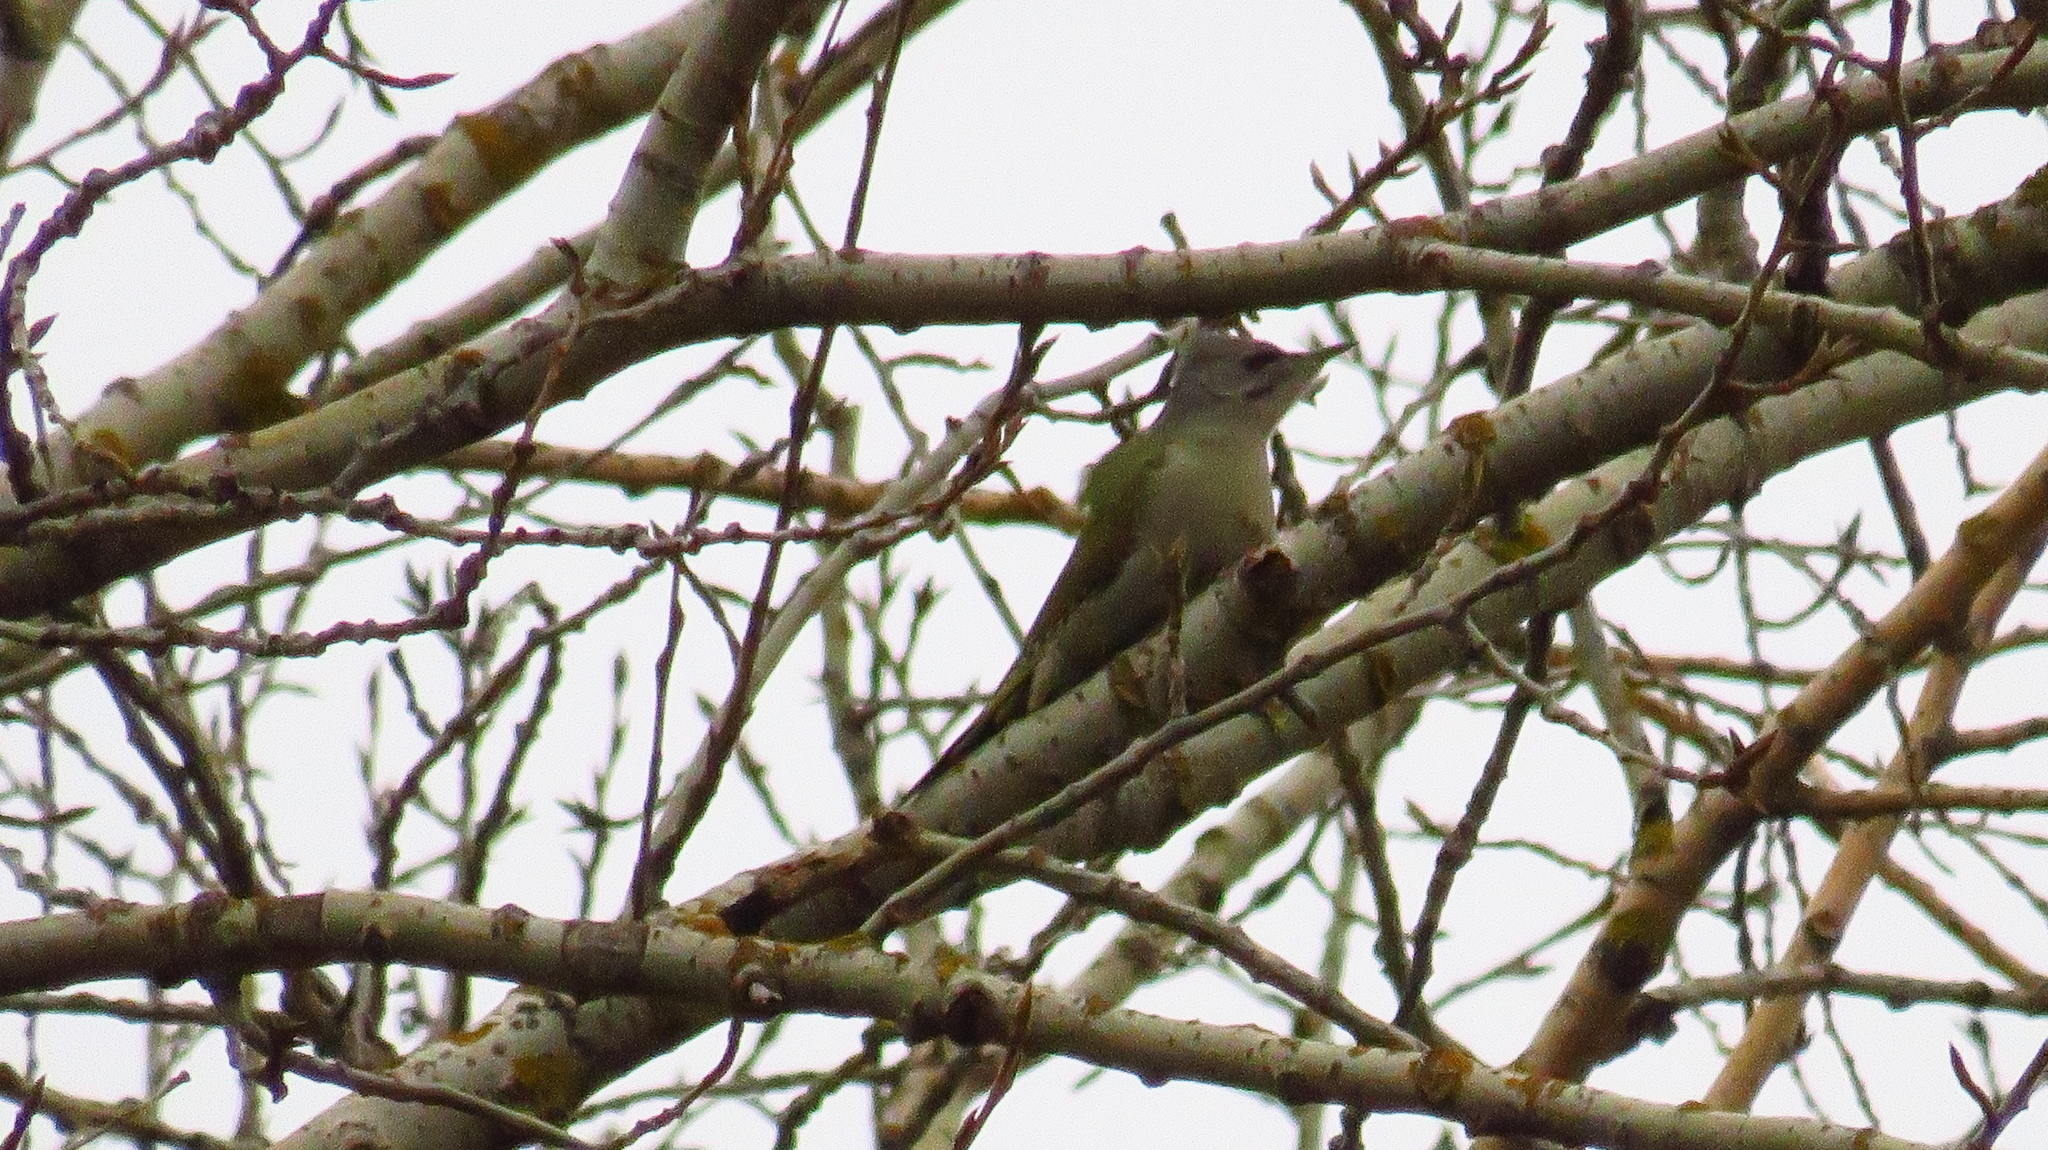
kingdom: Animalia
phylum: Chordata
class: Aves
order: Piciformes
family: Picidae
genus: Picus
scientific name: Picus canus
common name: Grey-headed woodpecker
